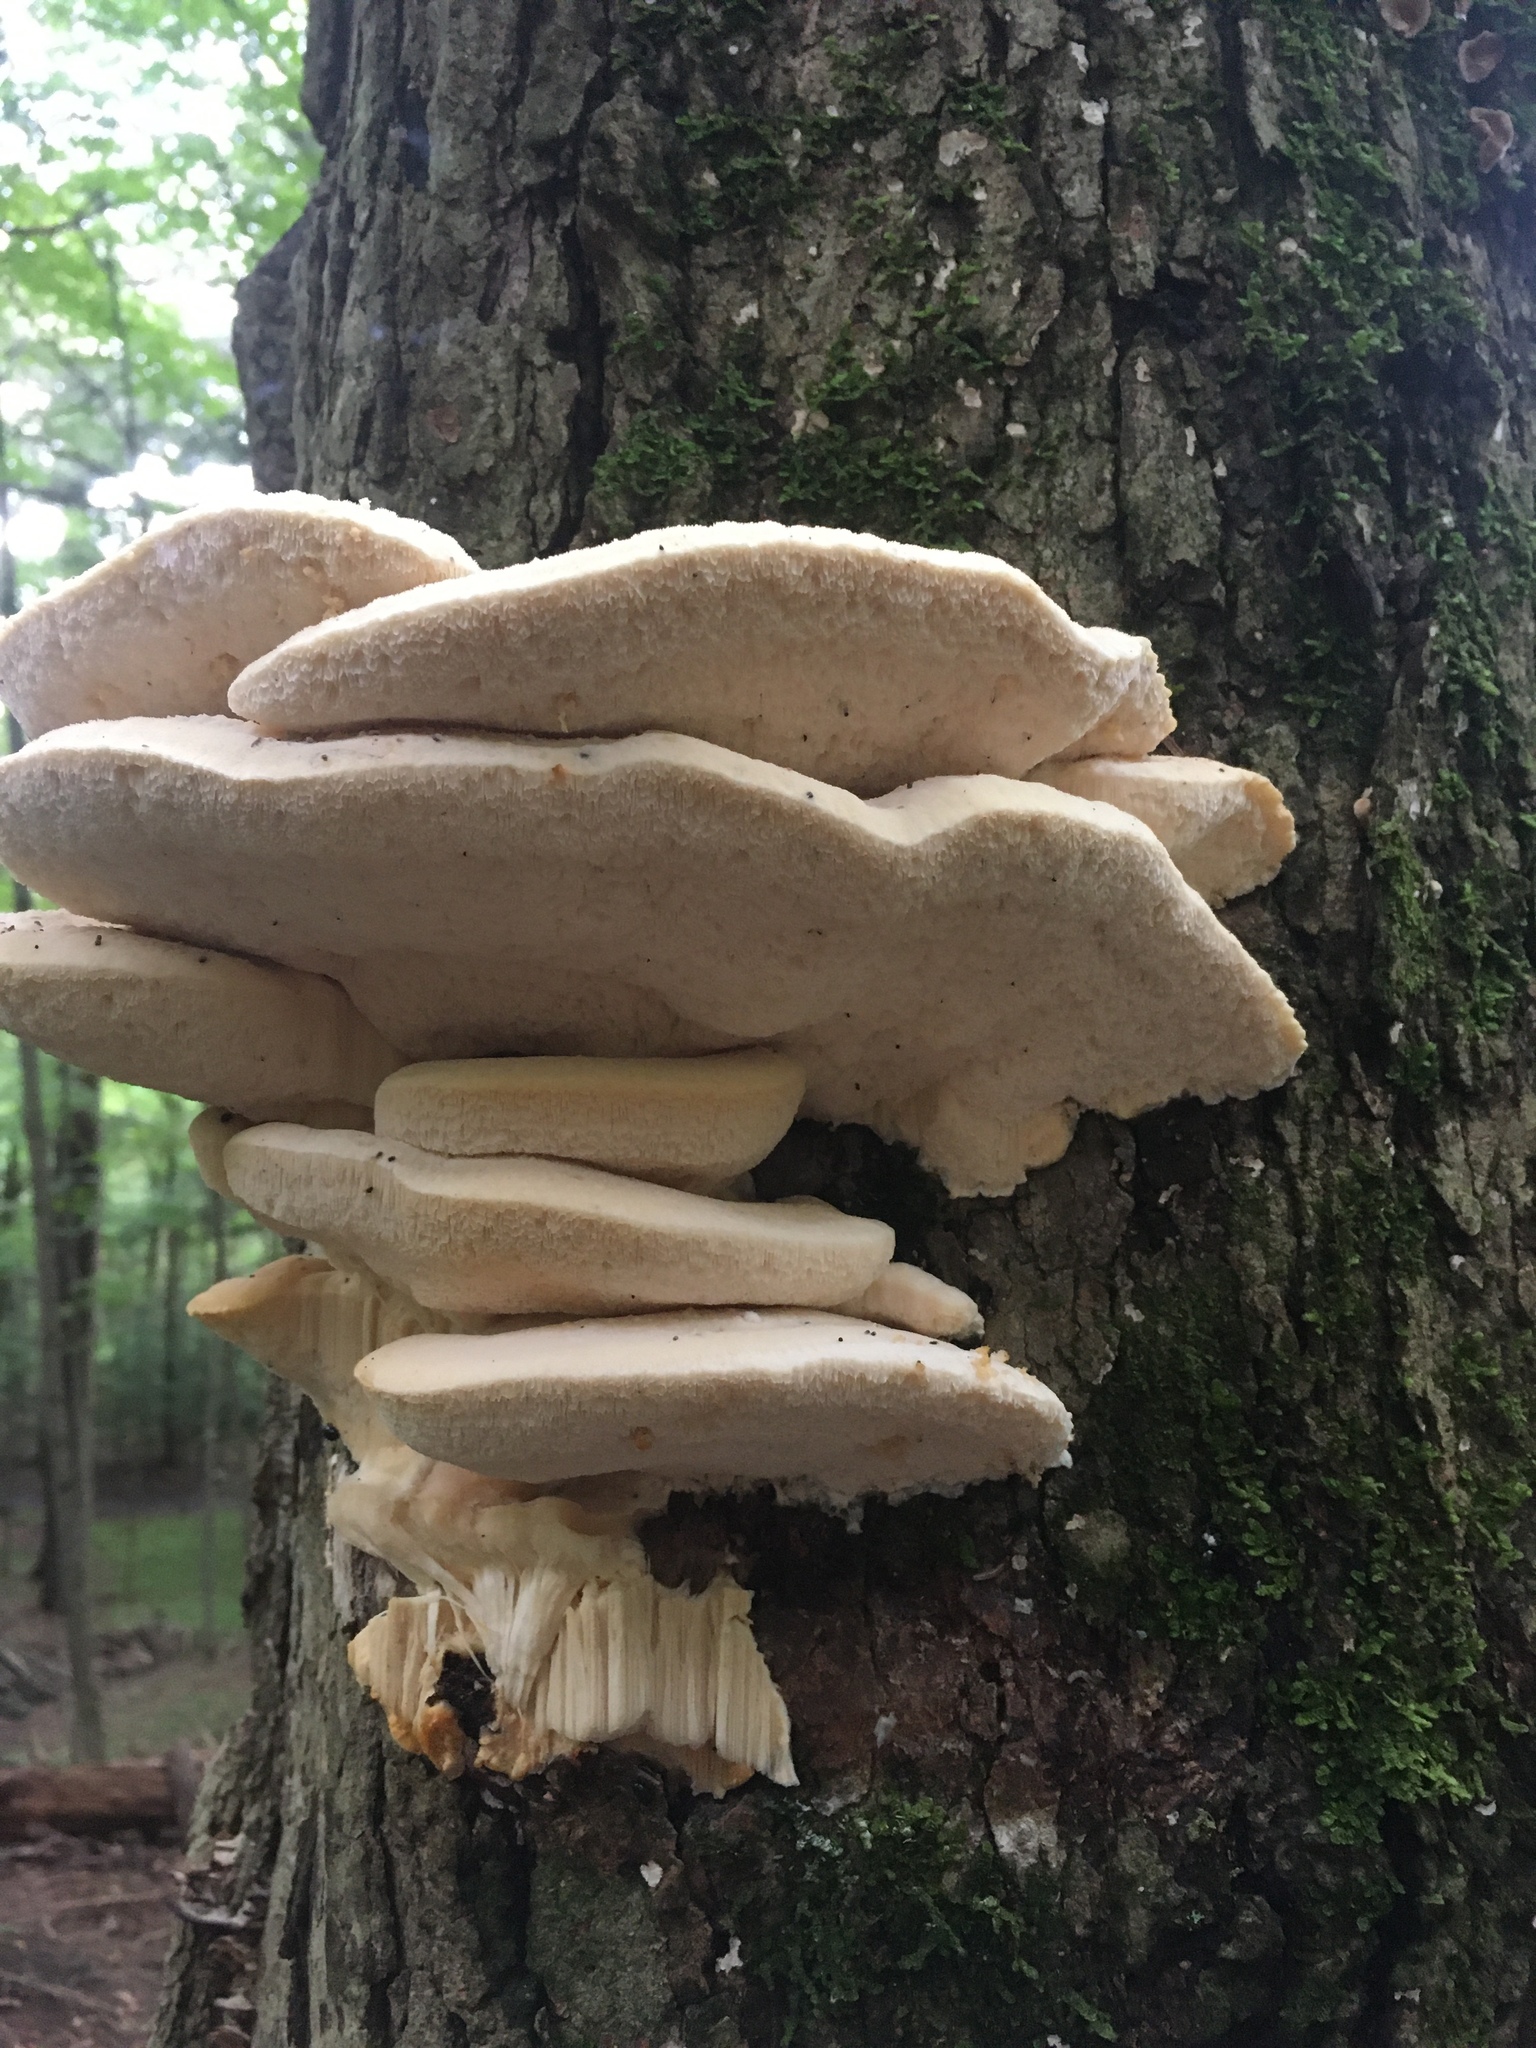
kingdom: Fungi
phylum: Basidiomycota
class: Agaricomycetes
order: Polyporales
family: Meruliaceae
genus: Spongipellis
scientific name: Spongipellis
